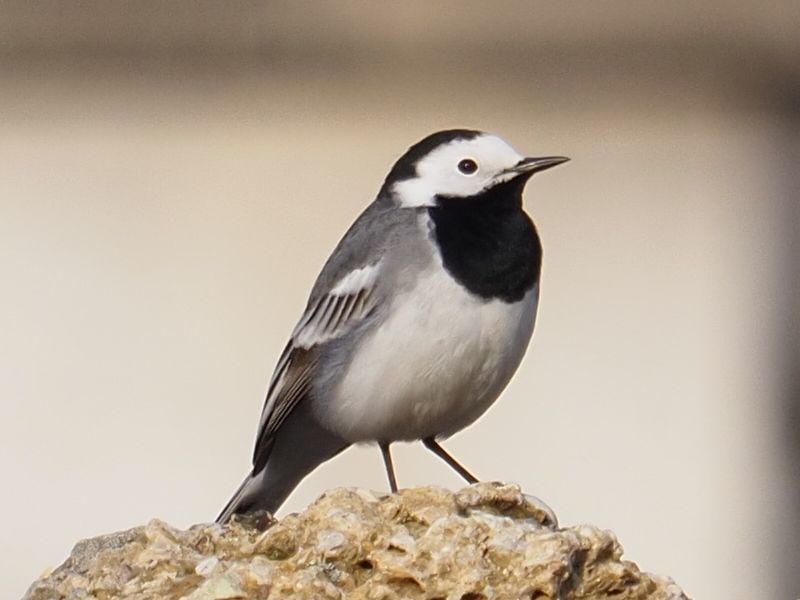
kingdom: Animalia
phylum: Chordata
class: Aves
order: Passeriformes
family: Motacillidae
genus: Motacilla
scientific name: Motacilla alba
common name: White wagtail
